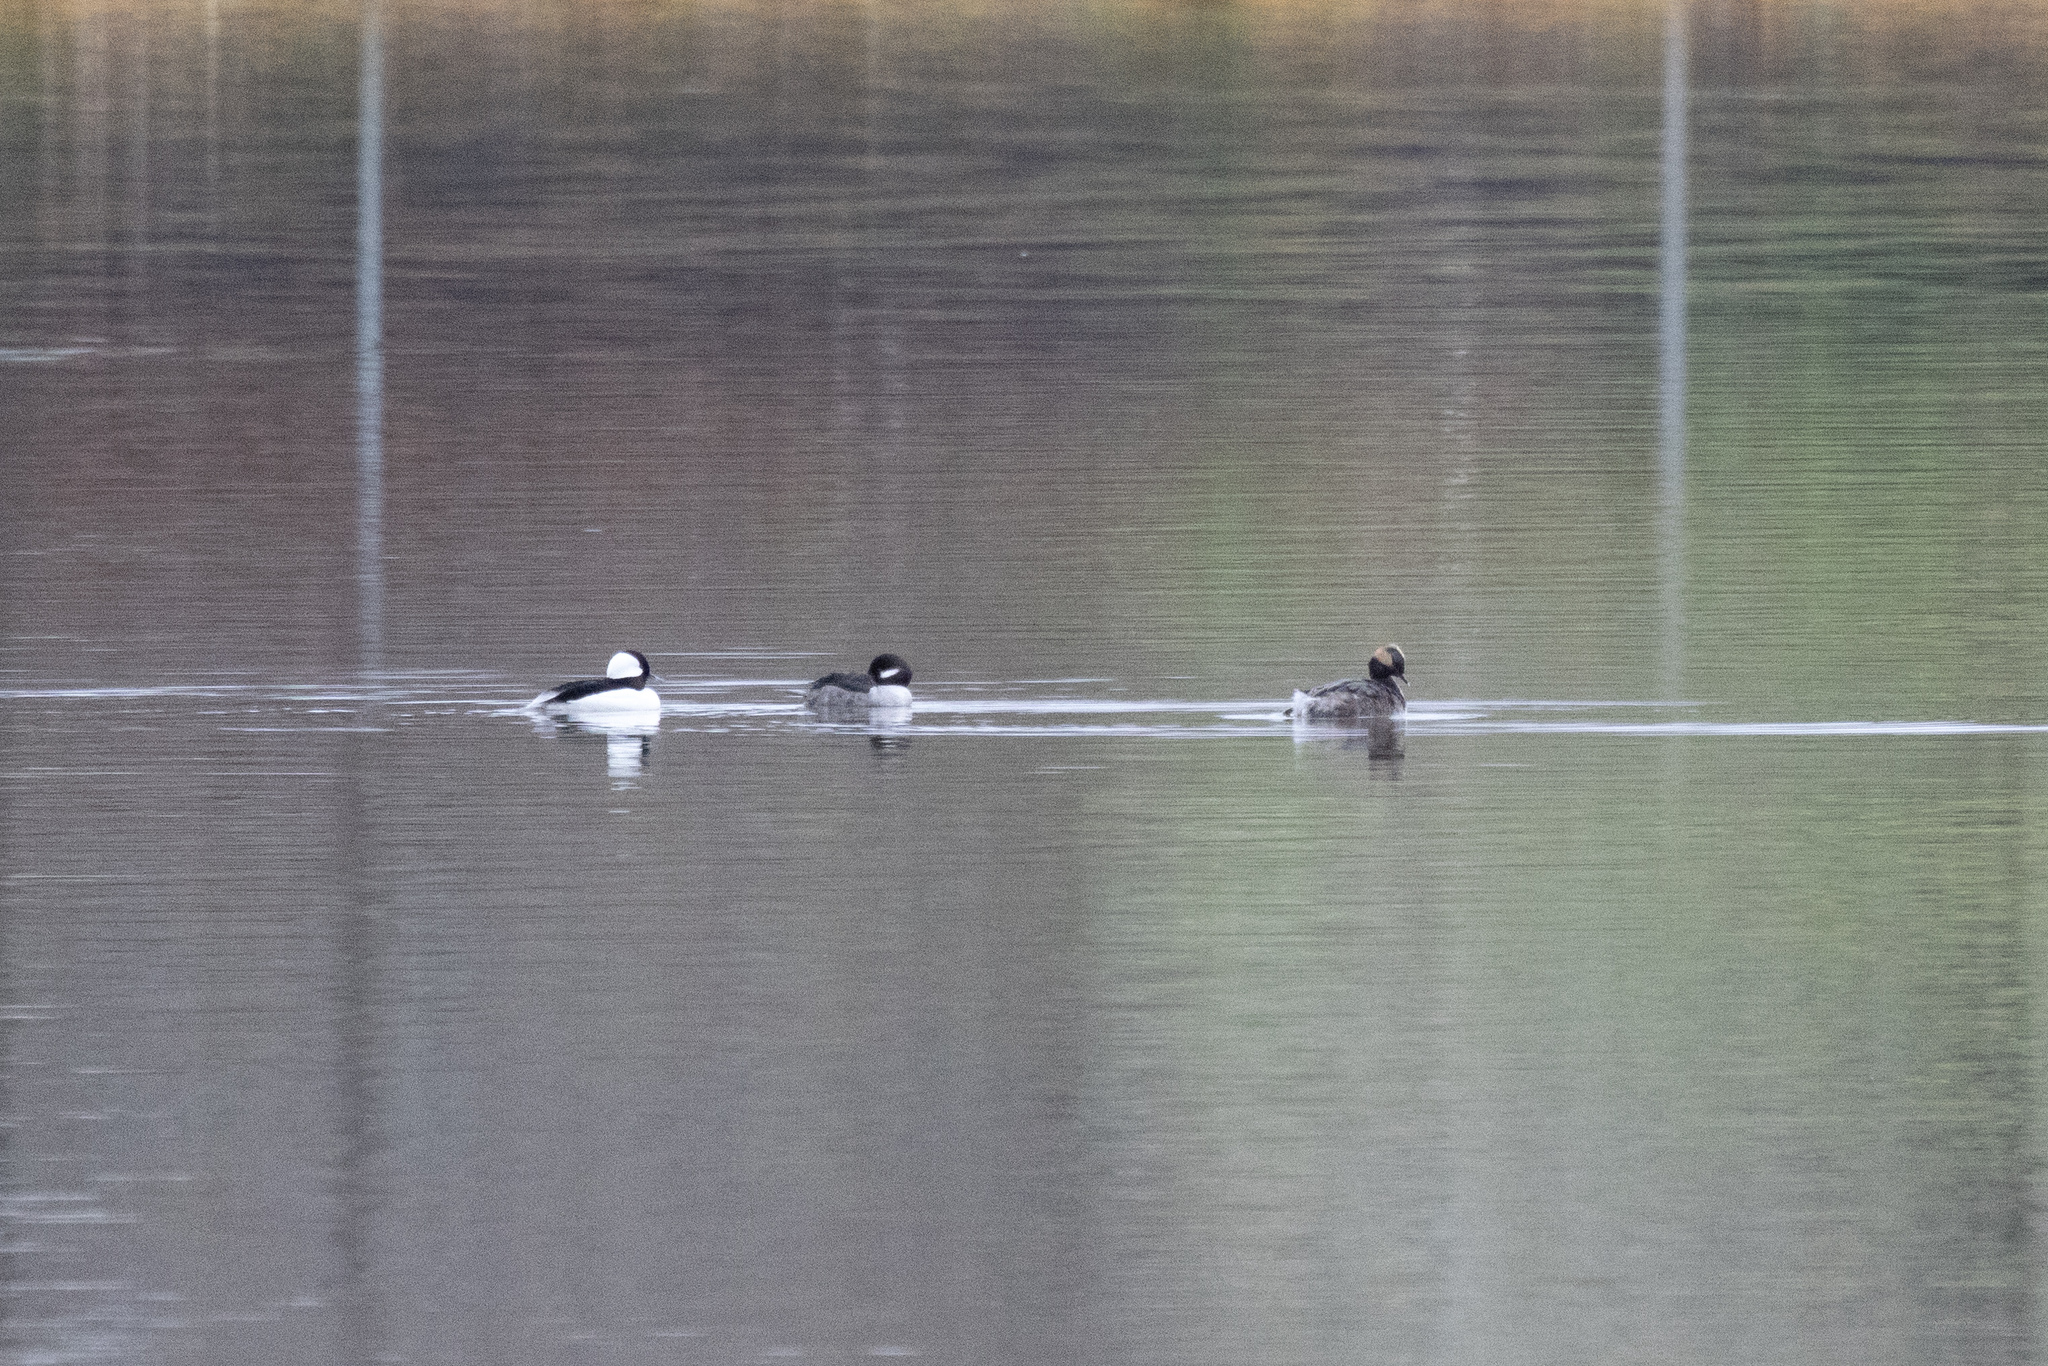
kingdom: Animalia
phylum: Chordata
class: Aves
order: Anseriformes
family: Anatidae
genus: Bucephala
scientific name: Bucephala albeola
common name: Bufflehead
